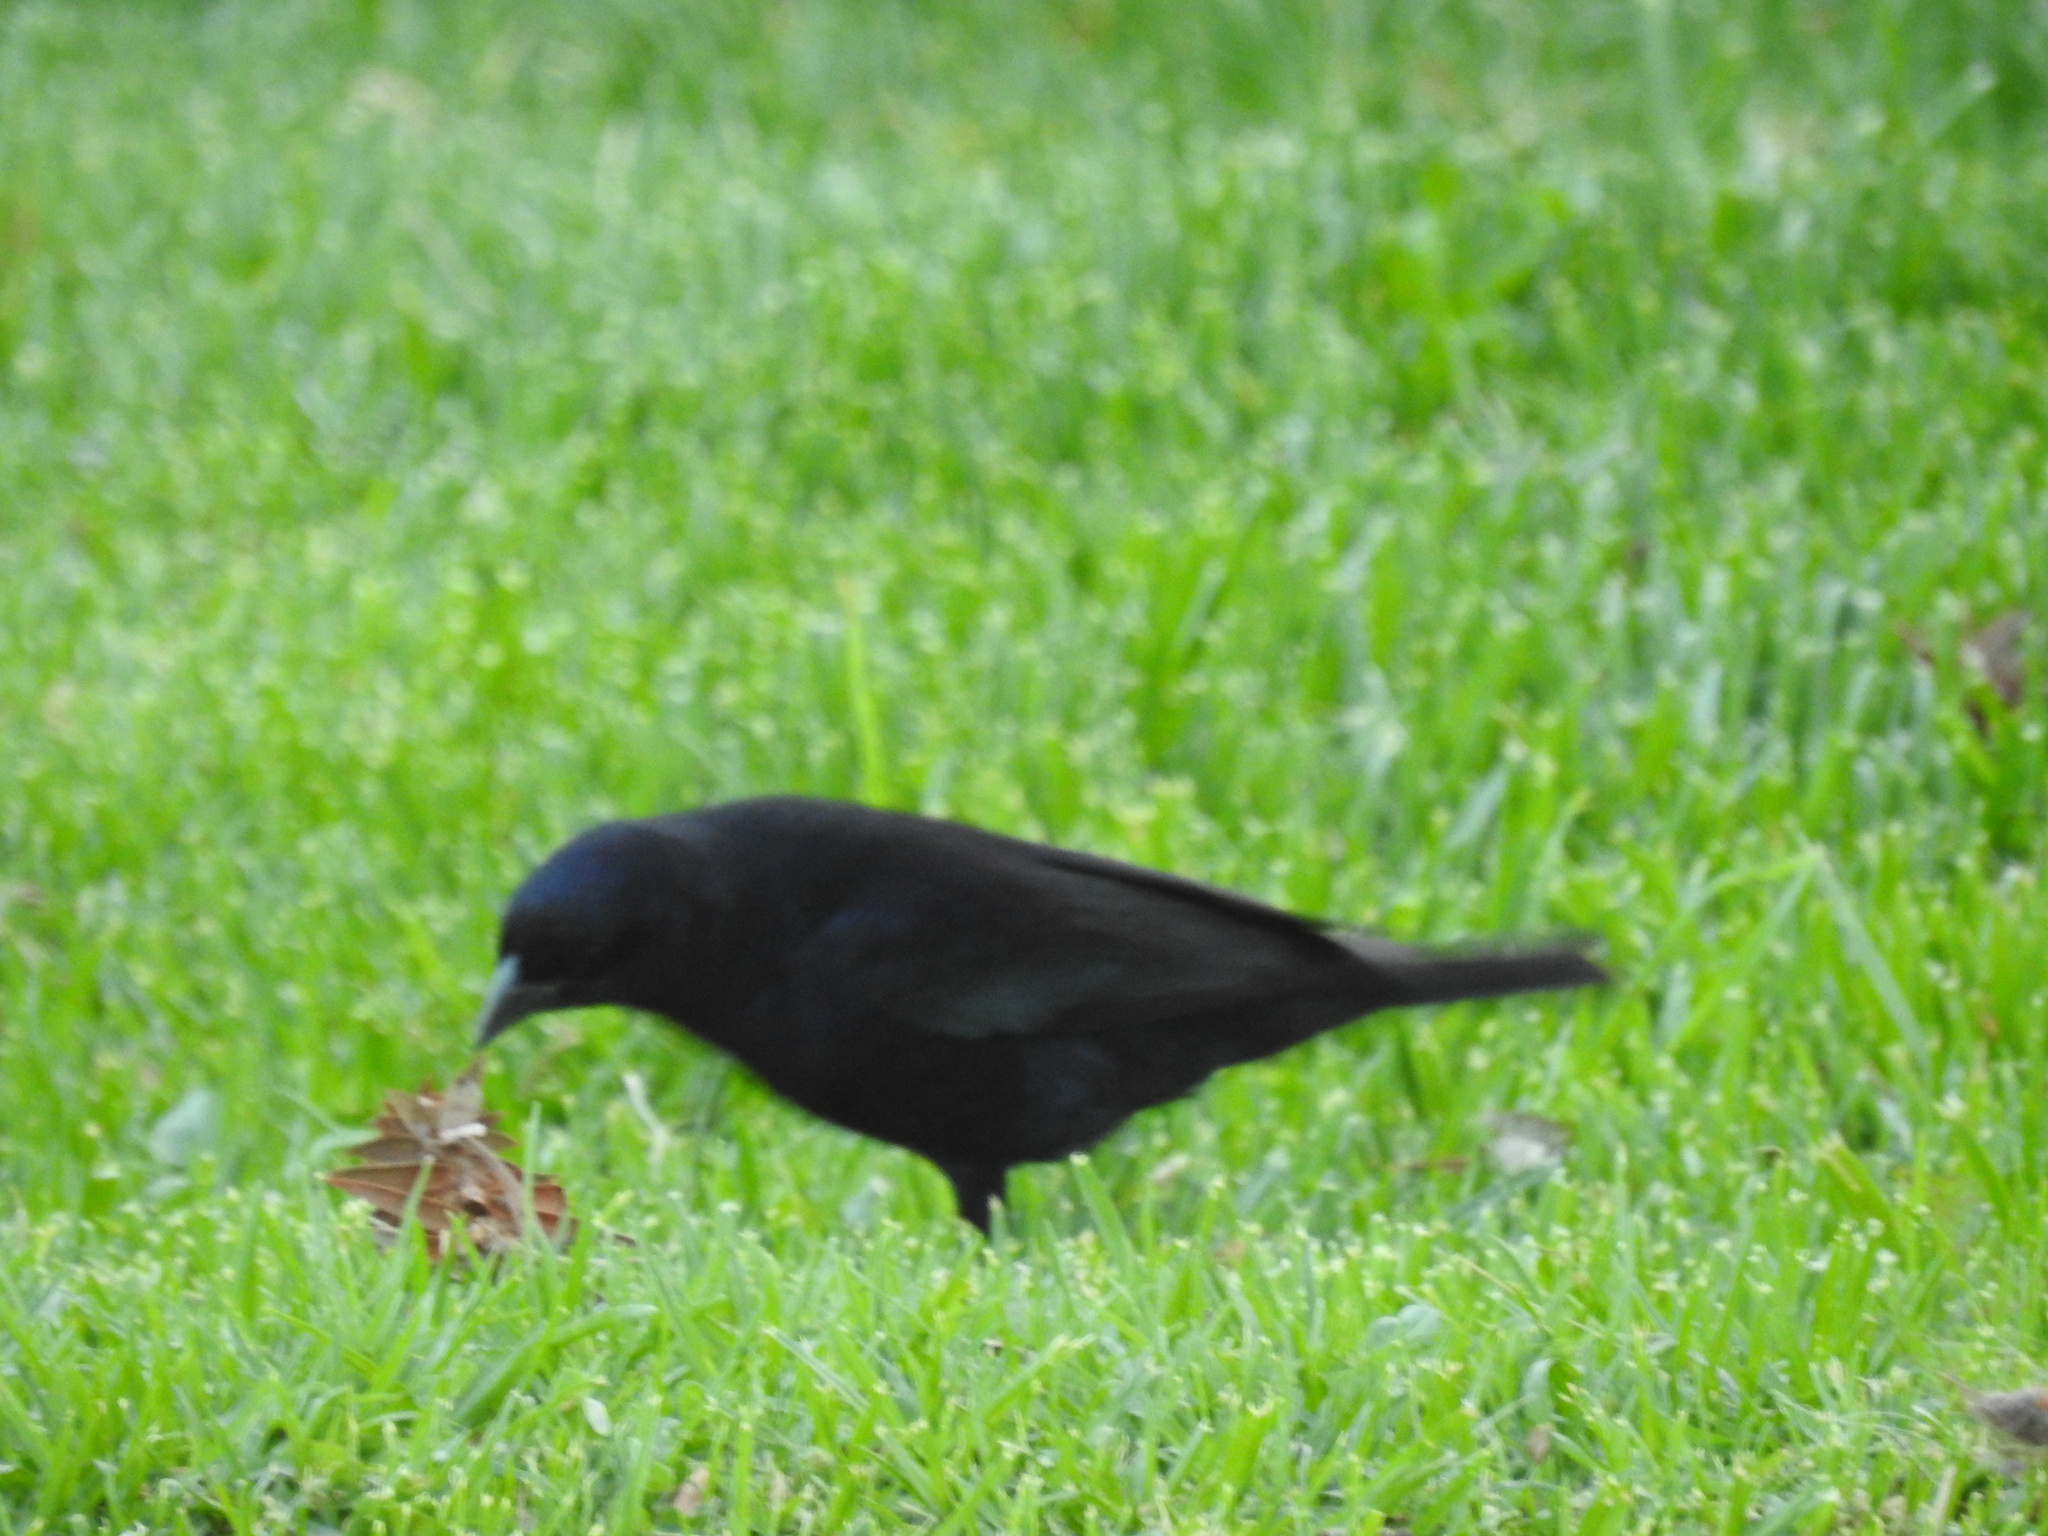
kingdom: Animalia
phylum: Chordata
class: Aves
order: Passeriformes
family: Icteridae
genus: Molothrus
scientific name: Molothrus bonariensis
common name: Shiny cowbird
